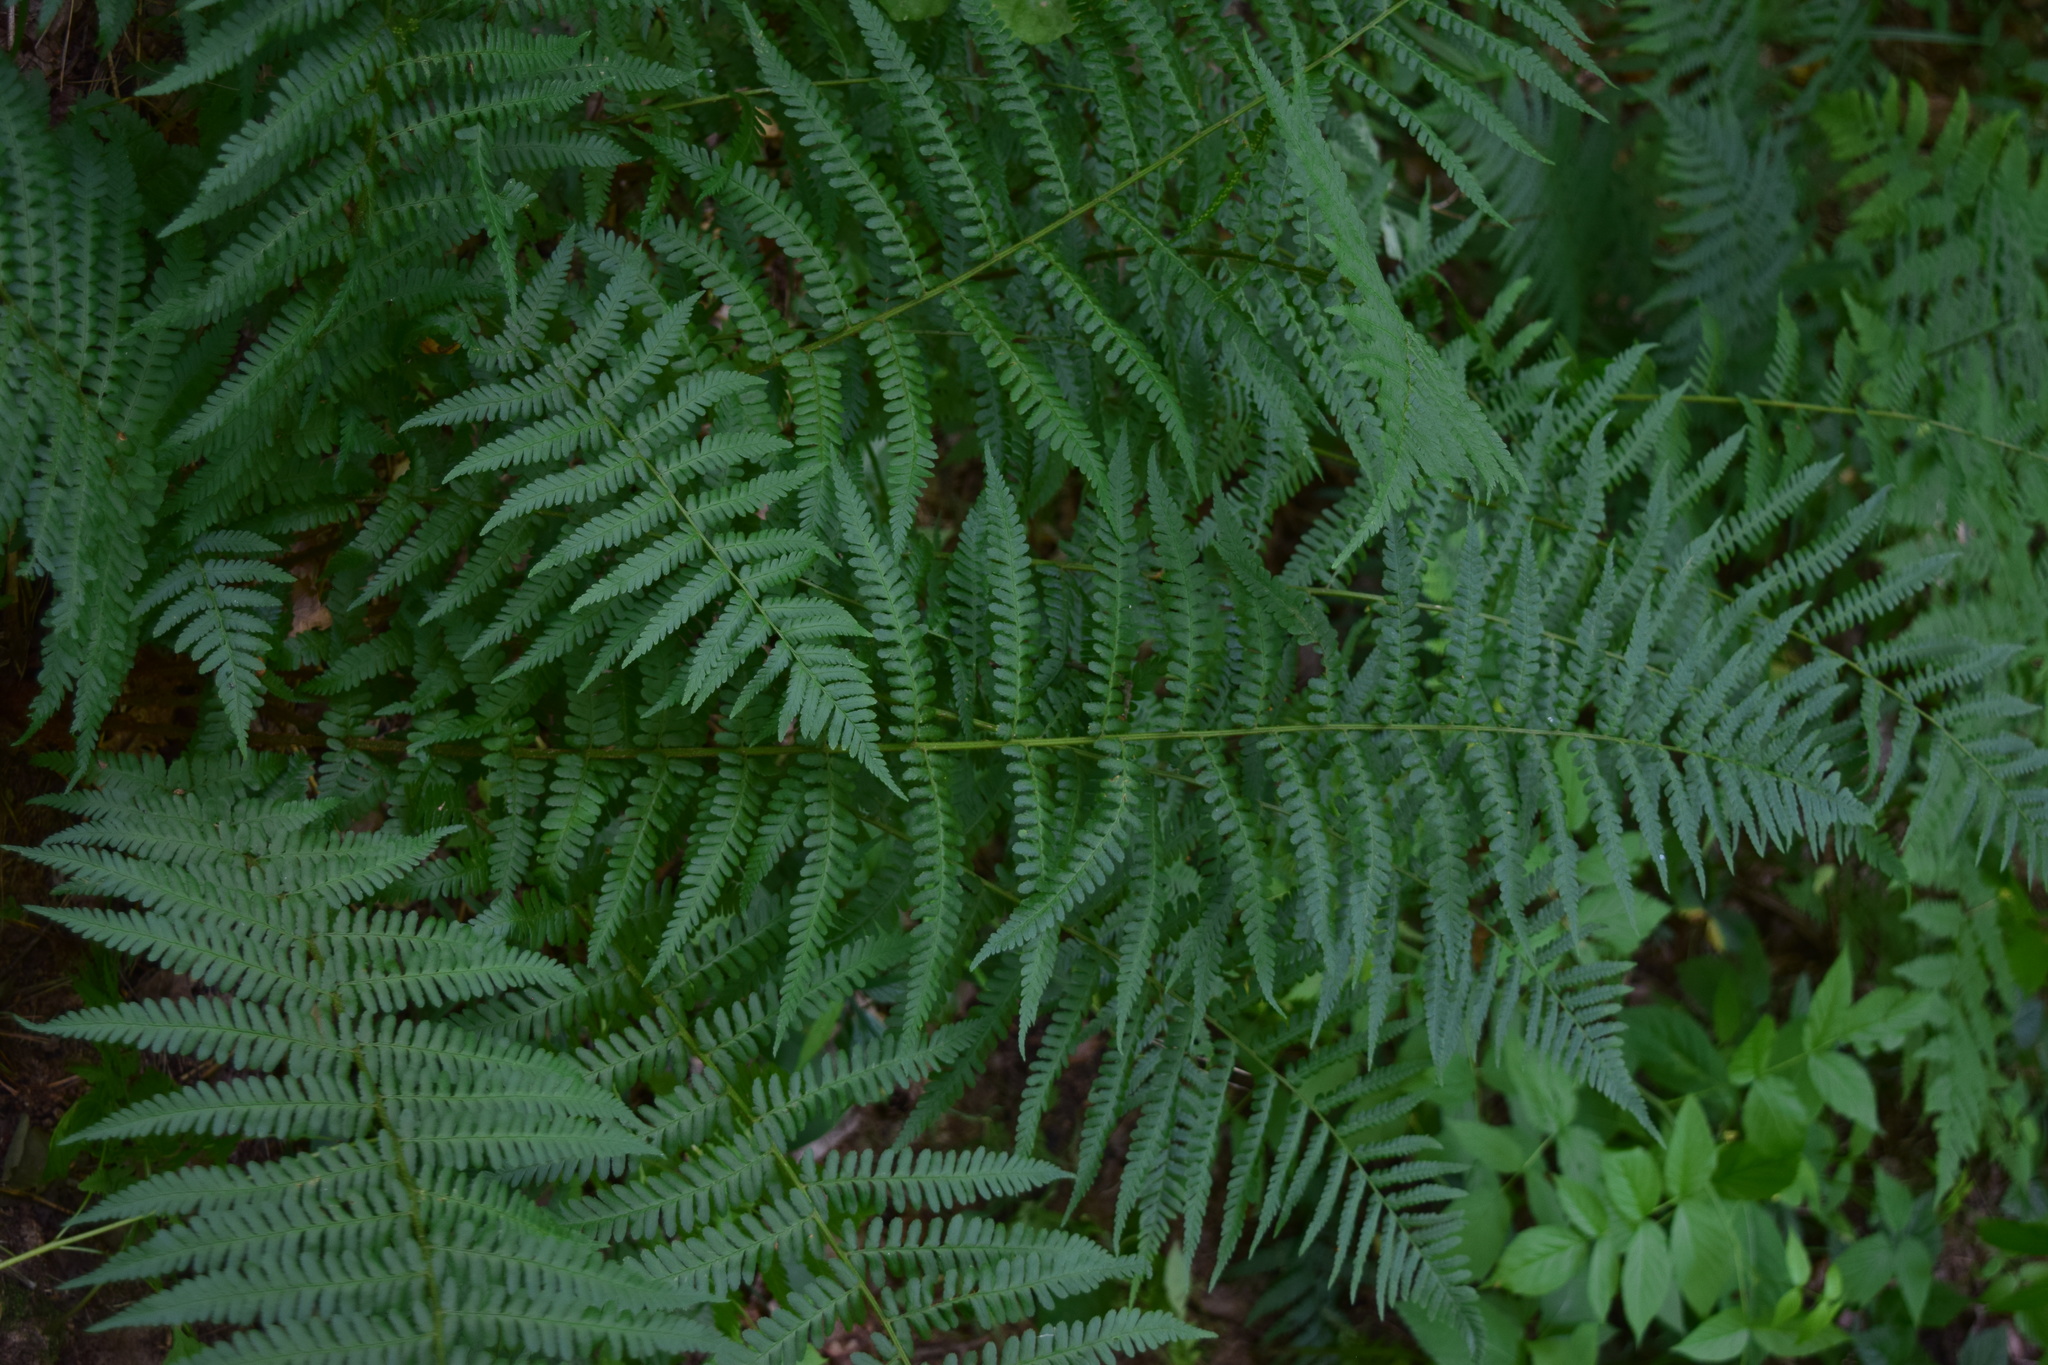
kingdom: Plantae
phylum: Tracheophyta
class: Polypodiopsida
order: Polypodiales
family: Dryopteridaceae
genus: Dryopteris
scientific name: Dryopteris filix-mas
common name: Male fern
